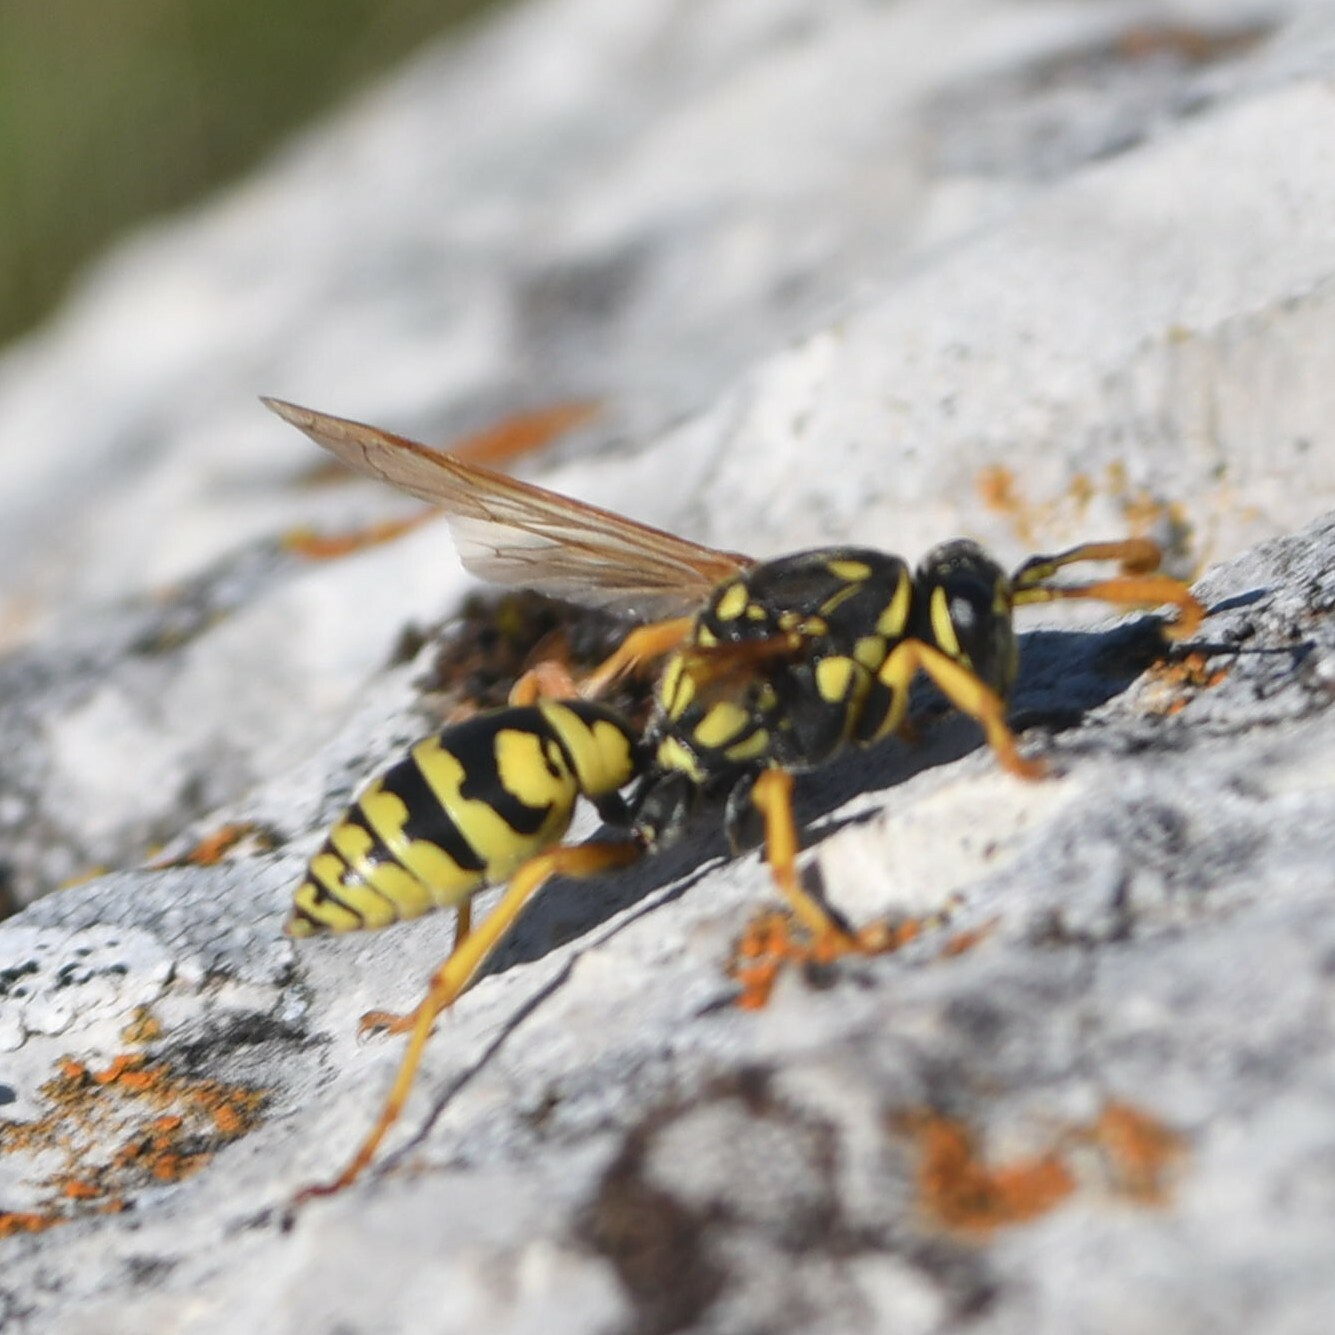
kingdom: Animalia
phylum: Arthropoda
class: Insecta
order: Hymenoptera
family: Eumenidae
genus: Polistes
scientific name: Polistes dominula
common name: Paper wasp
